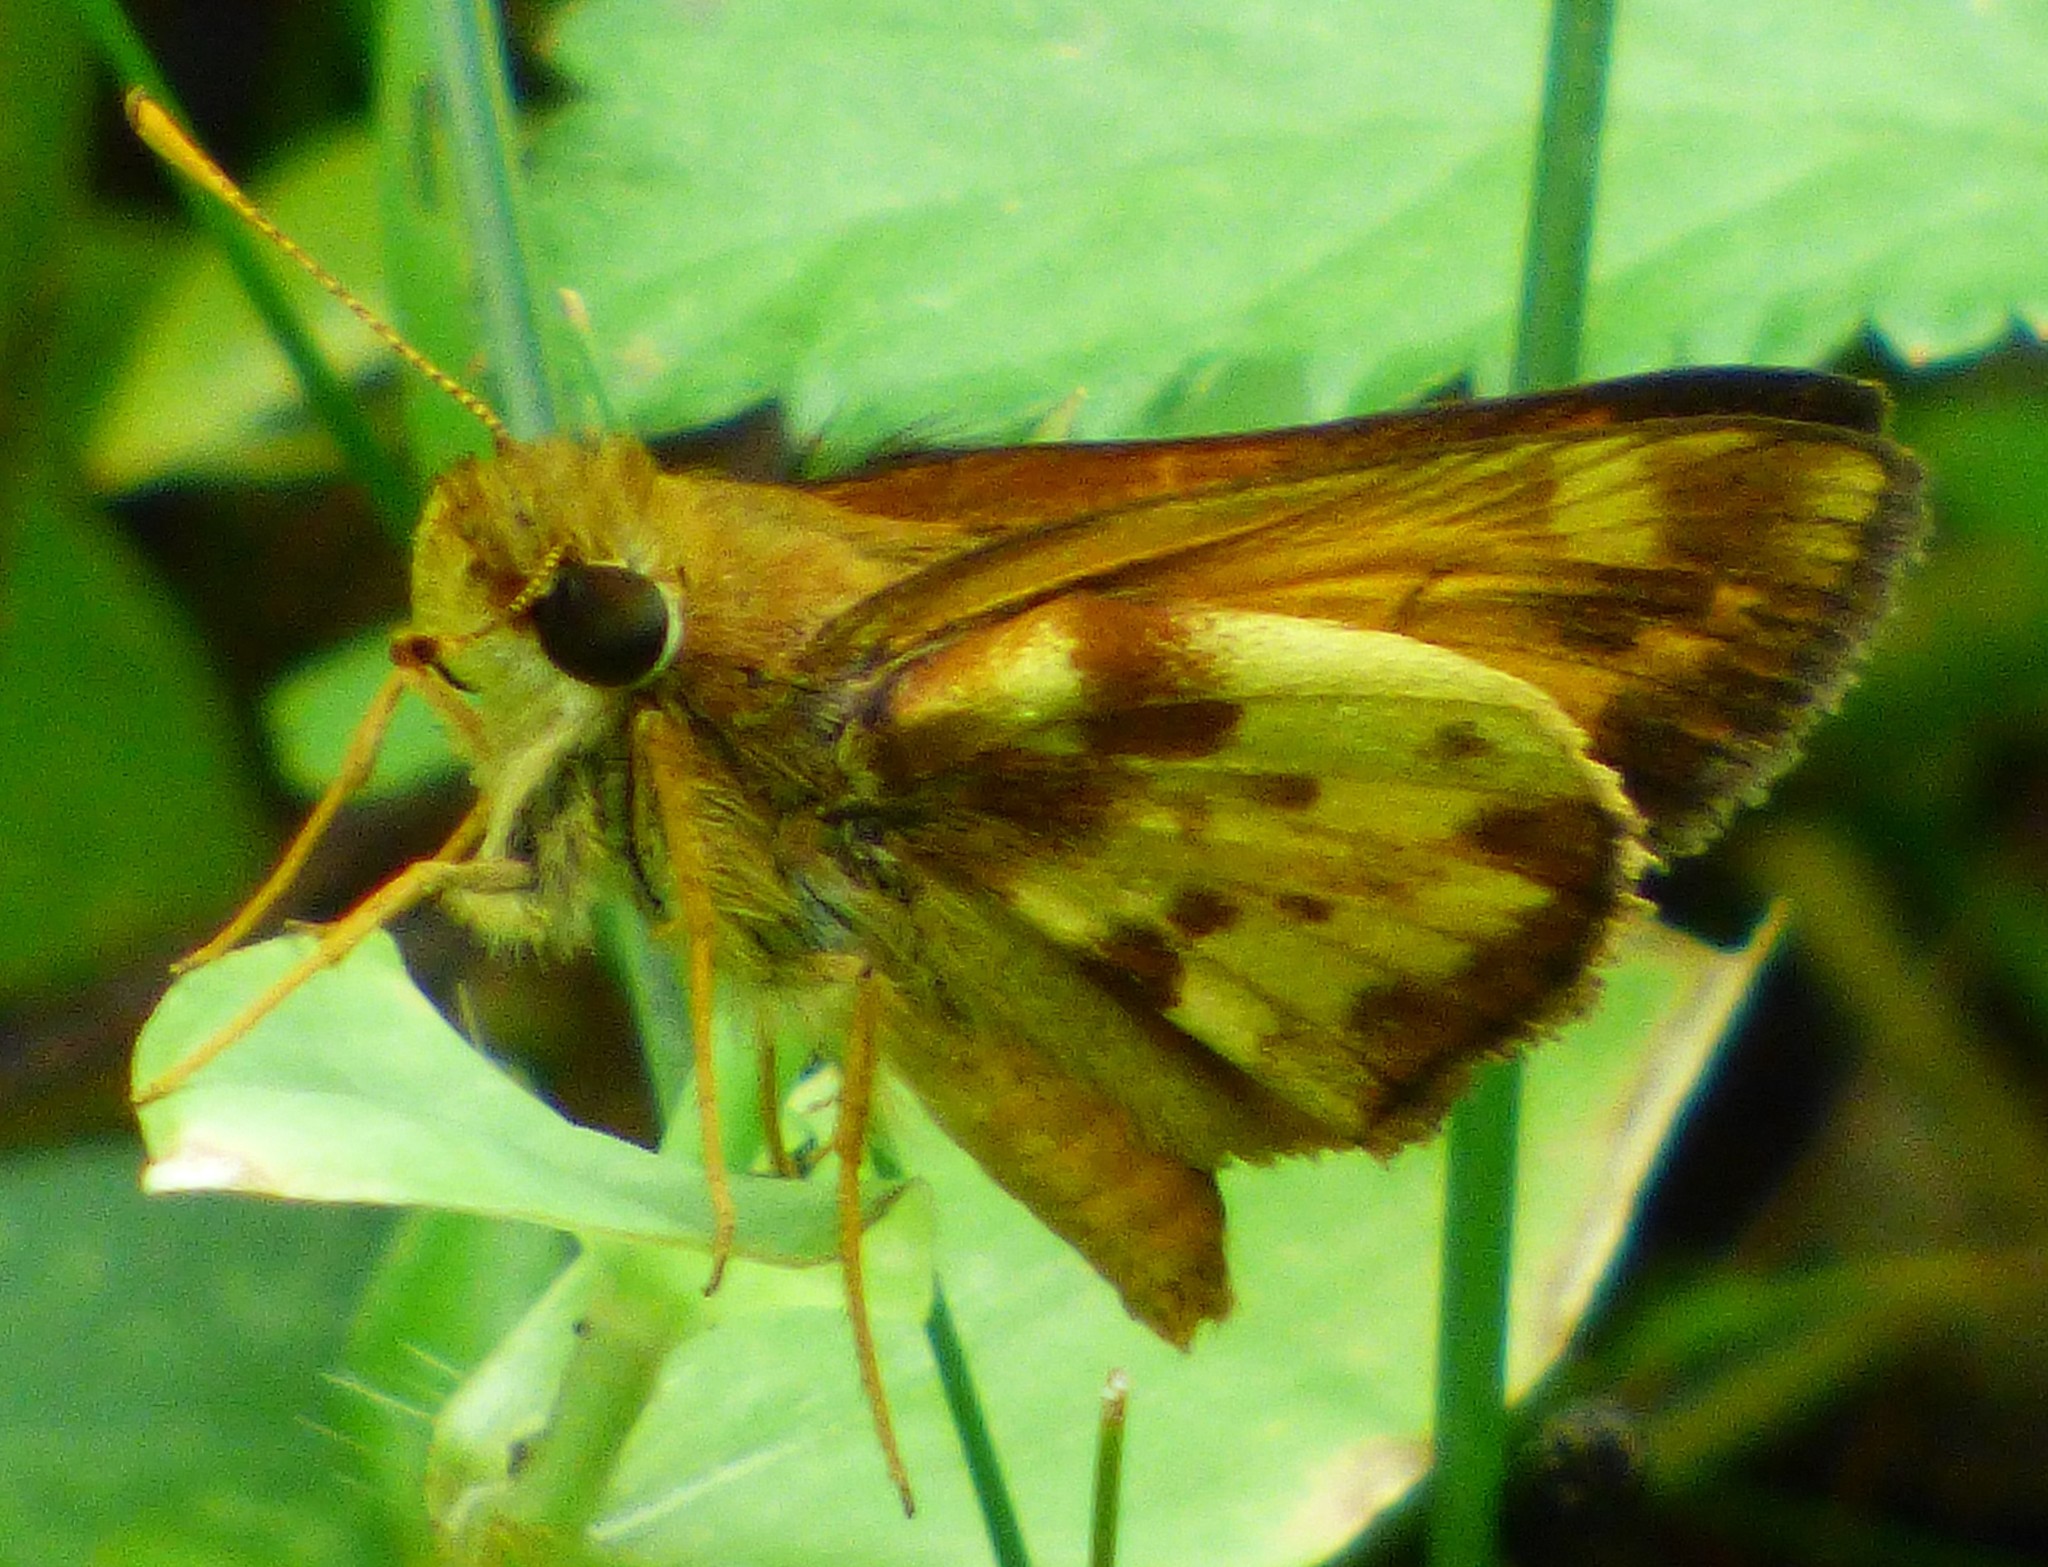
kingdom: Animalia
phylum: Arthropoda
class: Insecta
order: Lepidoptera
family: Hesperiidae
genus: Lon
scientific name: Lon zabulon
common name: Zabulon skipper
